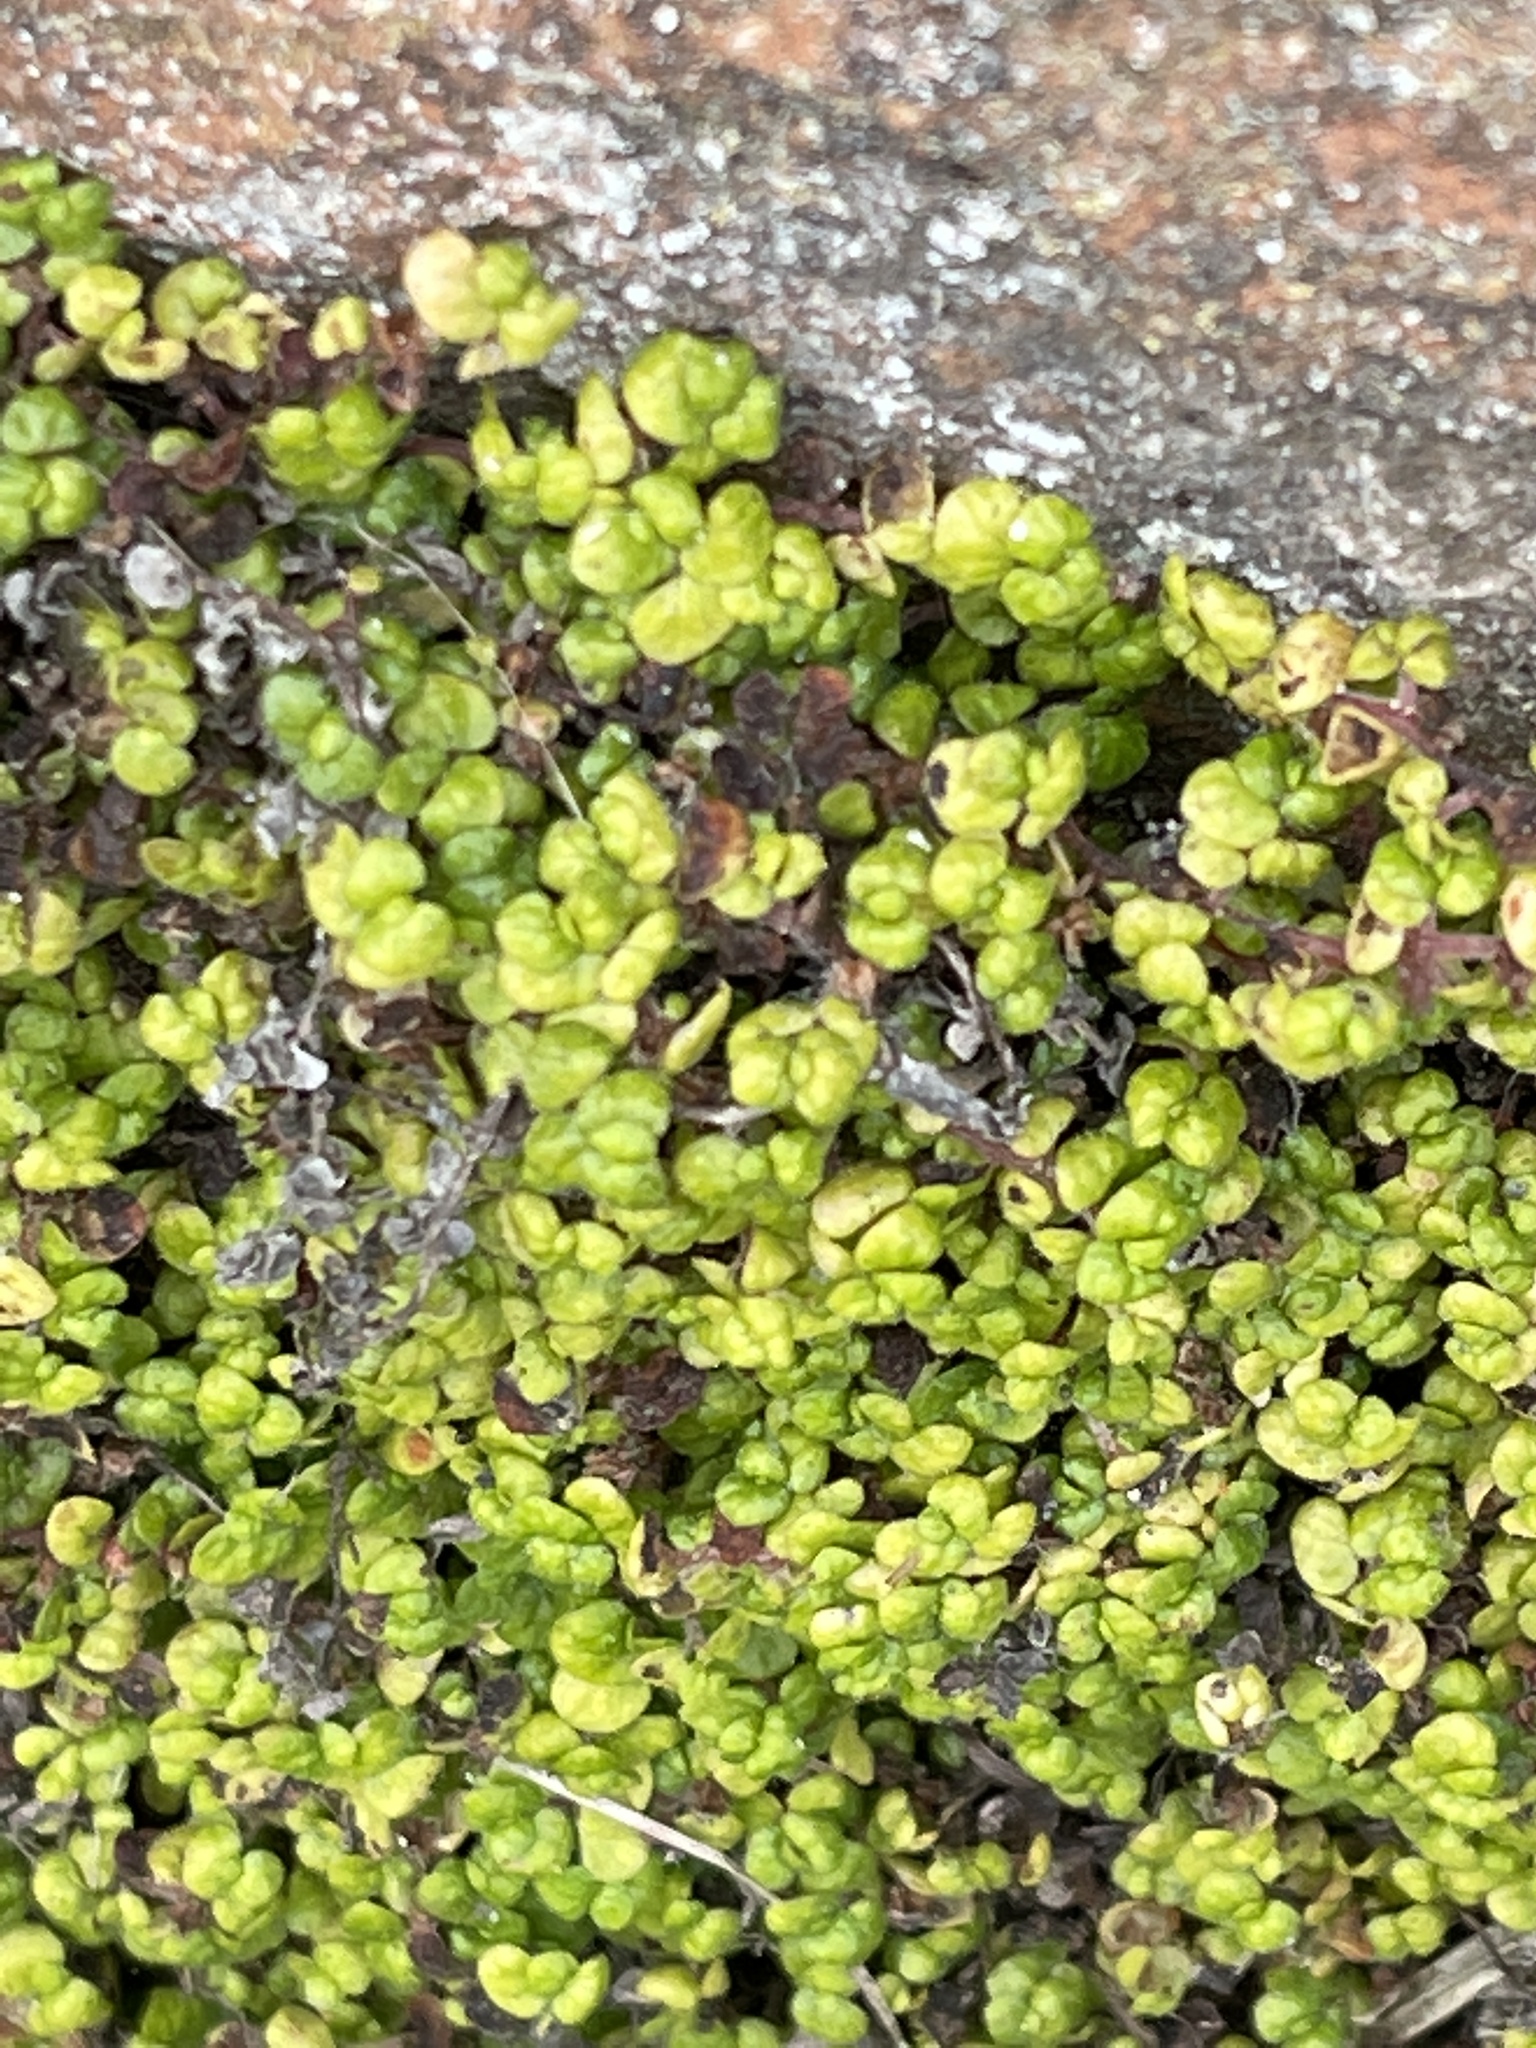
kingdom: Plantae
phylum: Tracheophyta
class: Magnoliopsida
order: Rosales
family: Urticaceae
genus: Soleirolia
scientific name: Soleirolia soleirolii
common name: Mind-your-own-business
